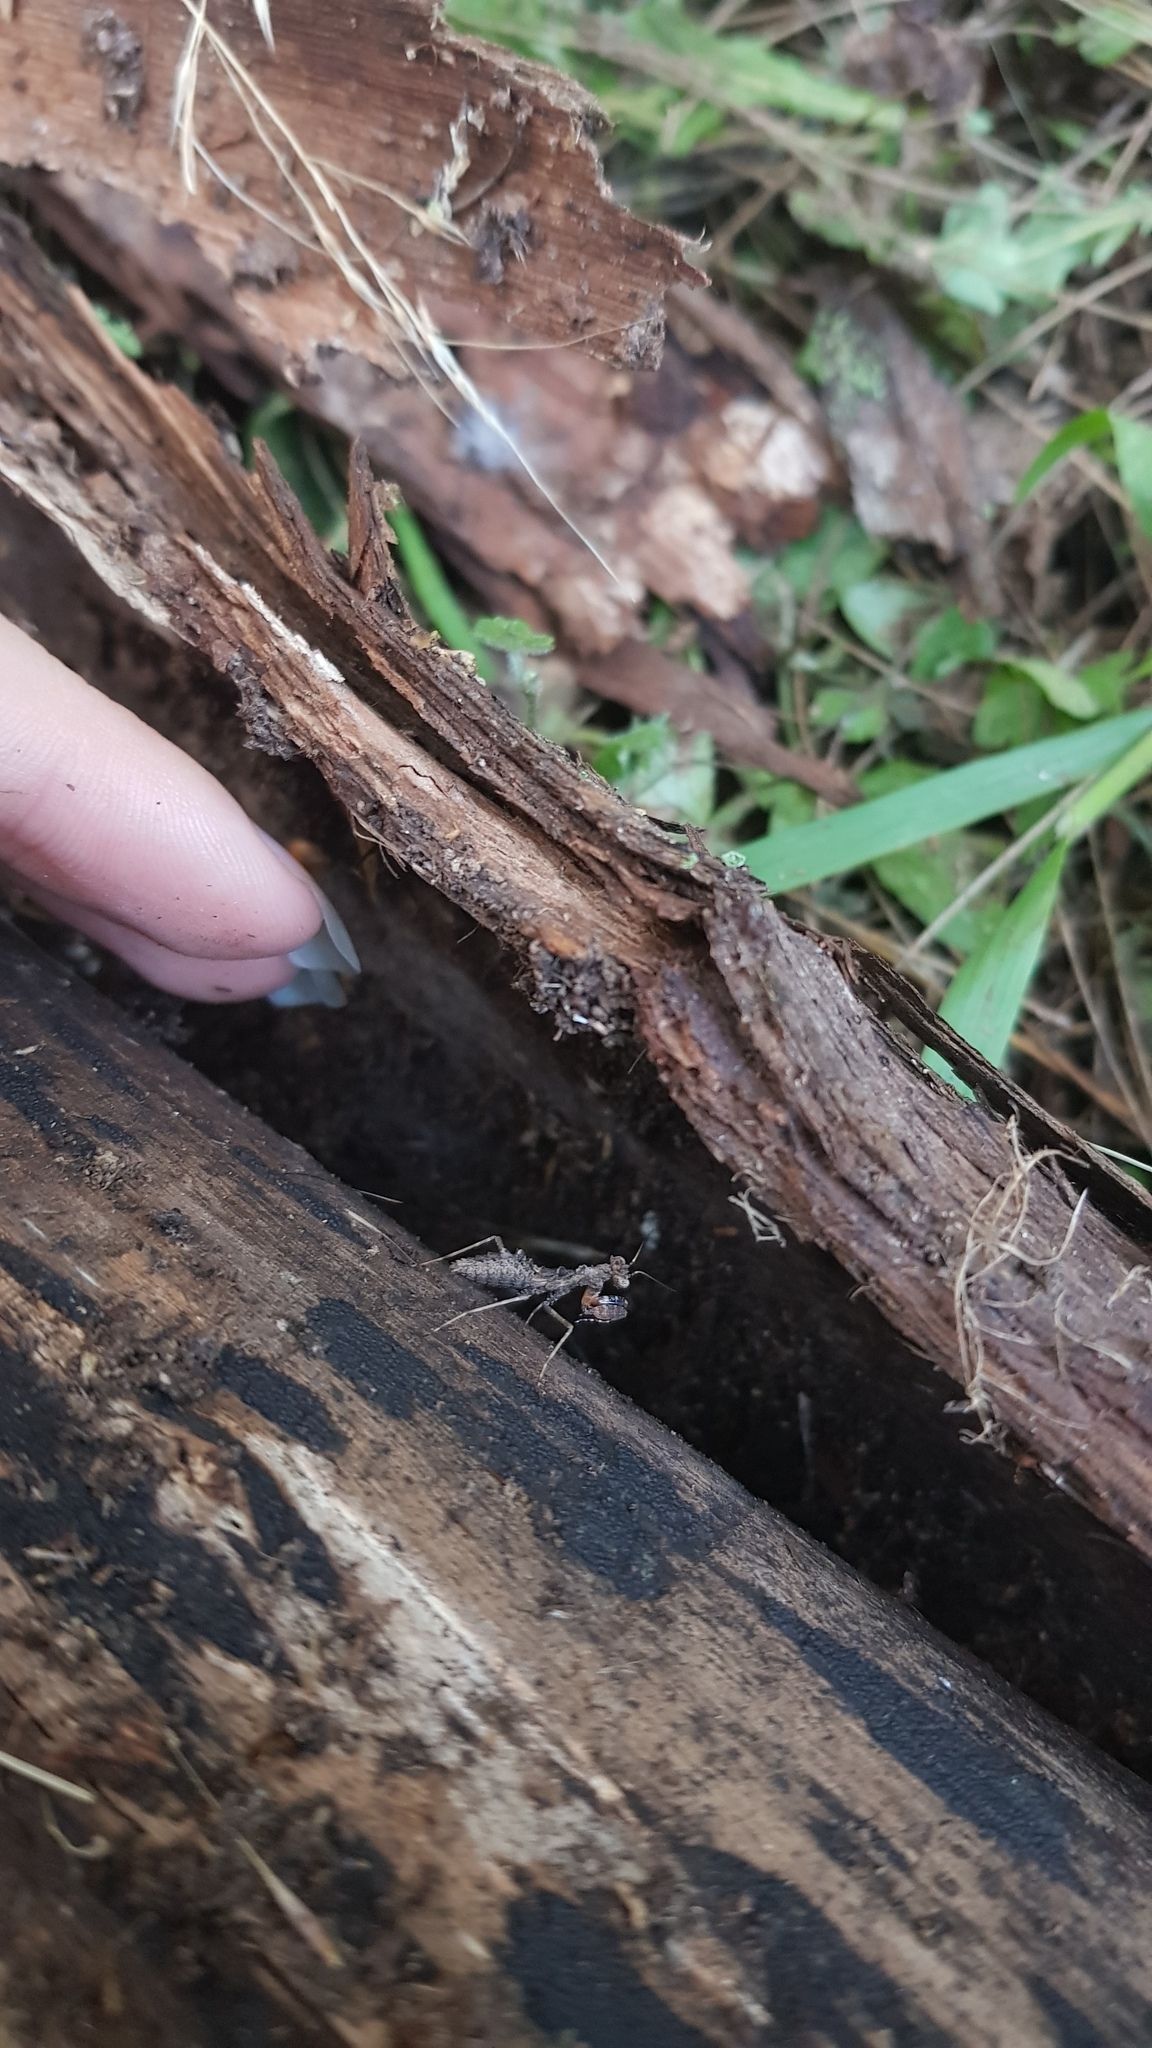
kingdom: Animalia
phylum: Arthropoda
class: Insecta
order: Mantodea
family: Nanomantidae
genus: Paraoxypilus
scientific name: Paraoxypilus tasmaniensis
